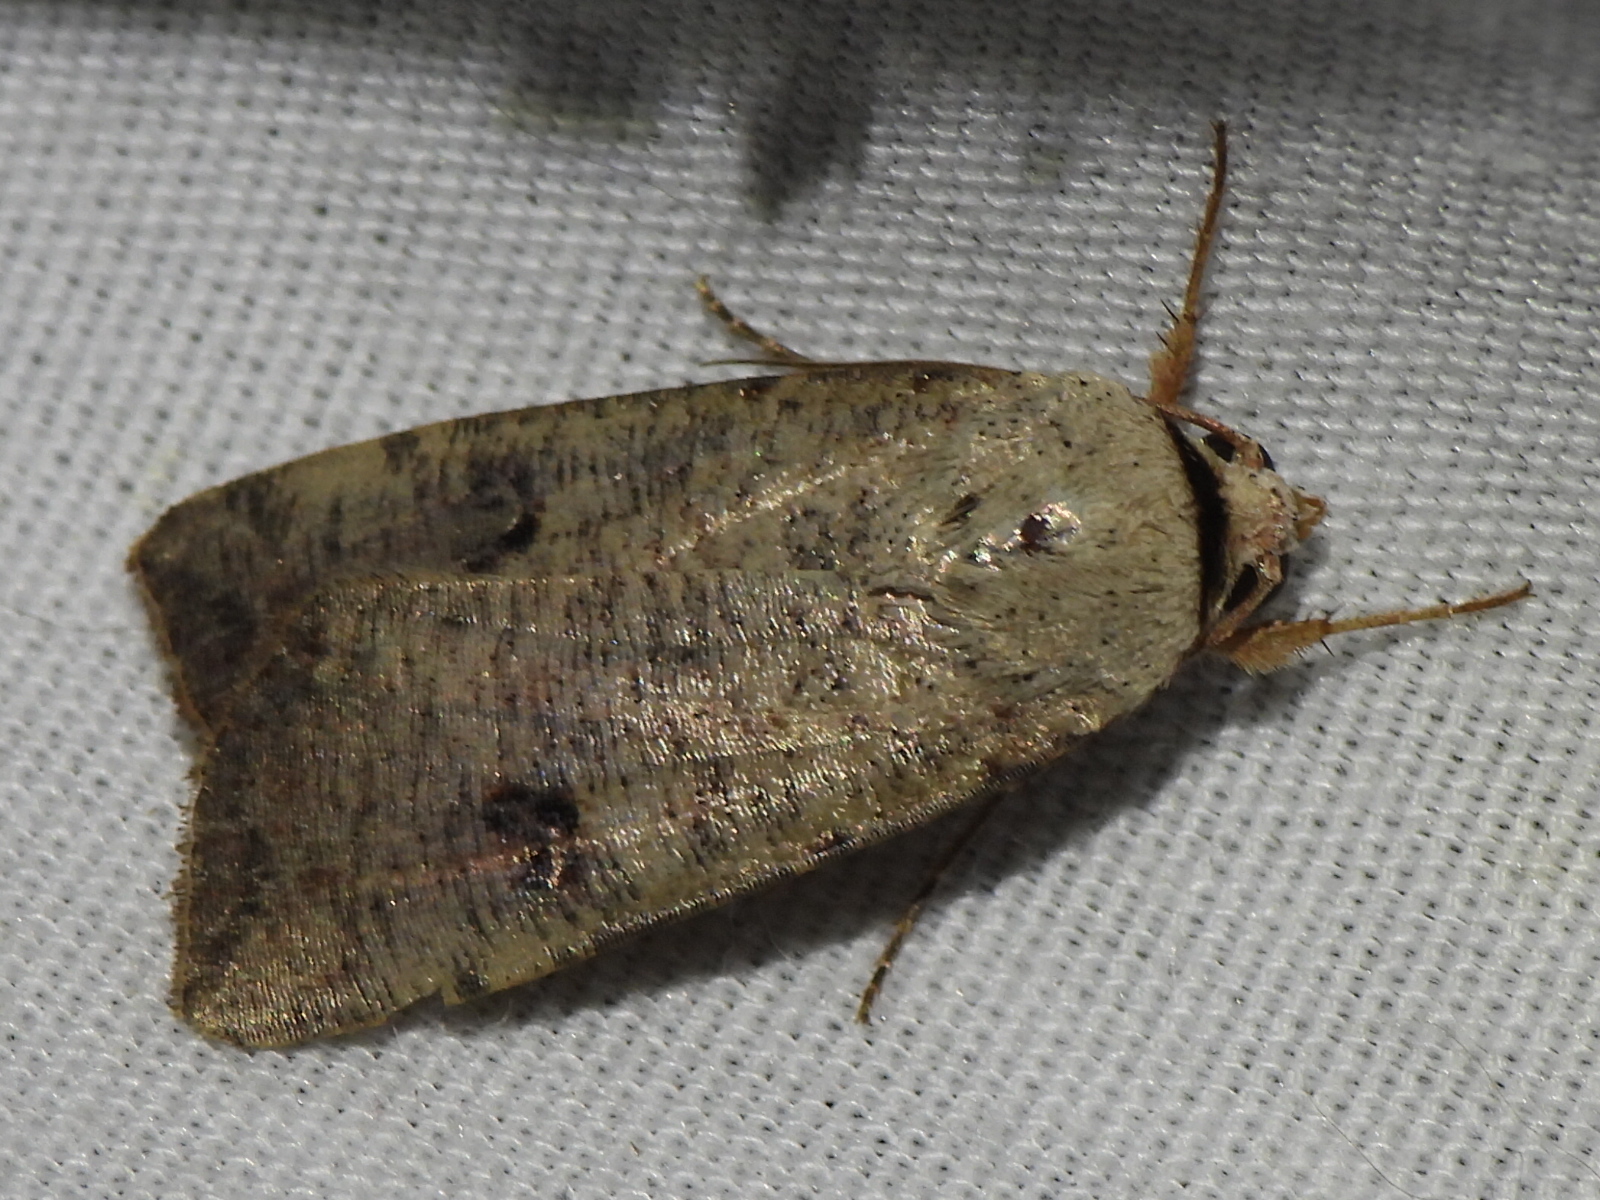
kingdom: Animalia
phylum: Arthropoda
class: Insecta
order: Lepidoptera
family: Noctuidae
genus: Anicla
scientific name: Anicla infecta
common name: Green cutworm
